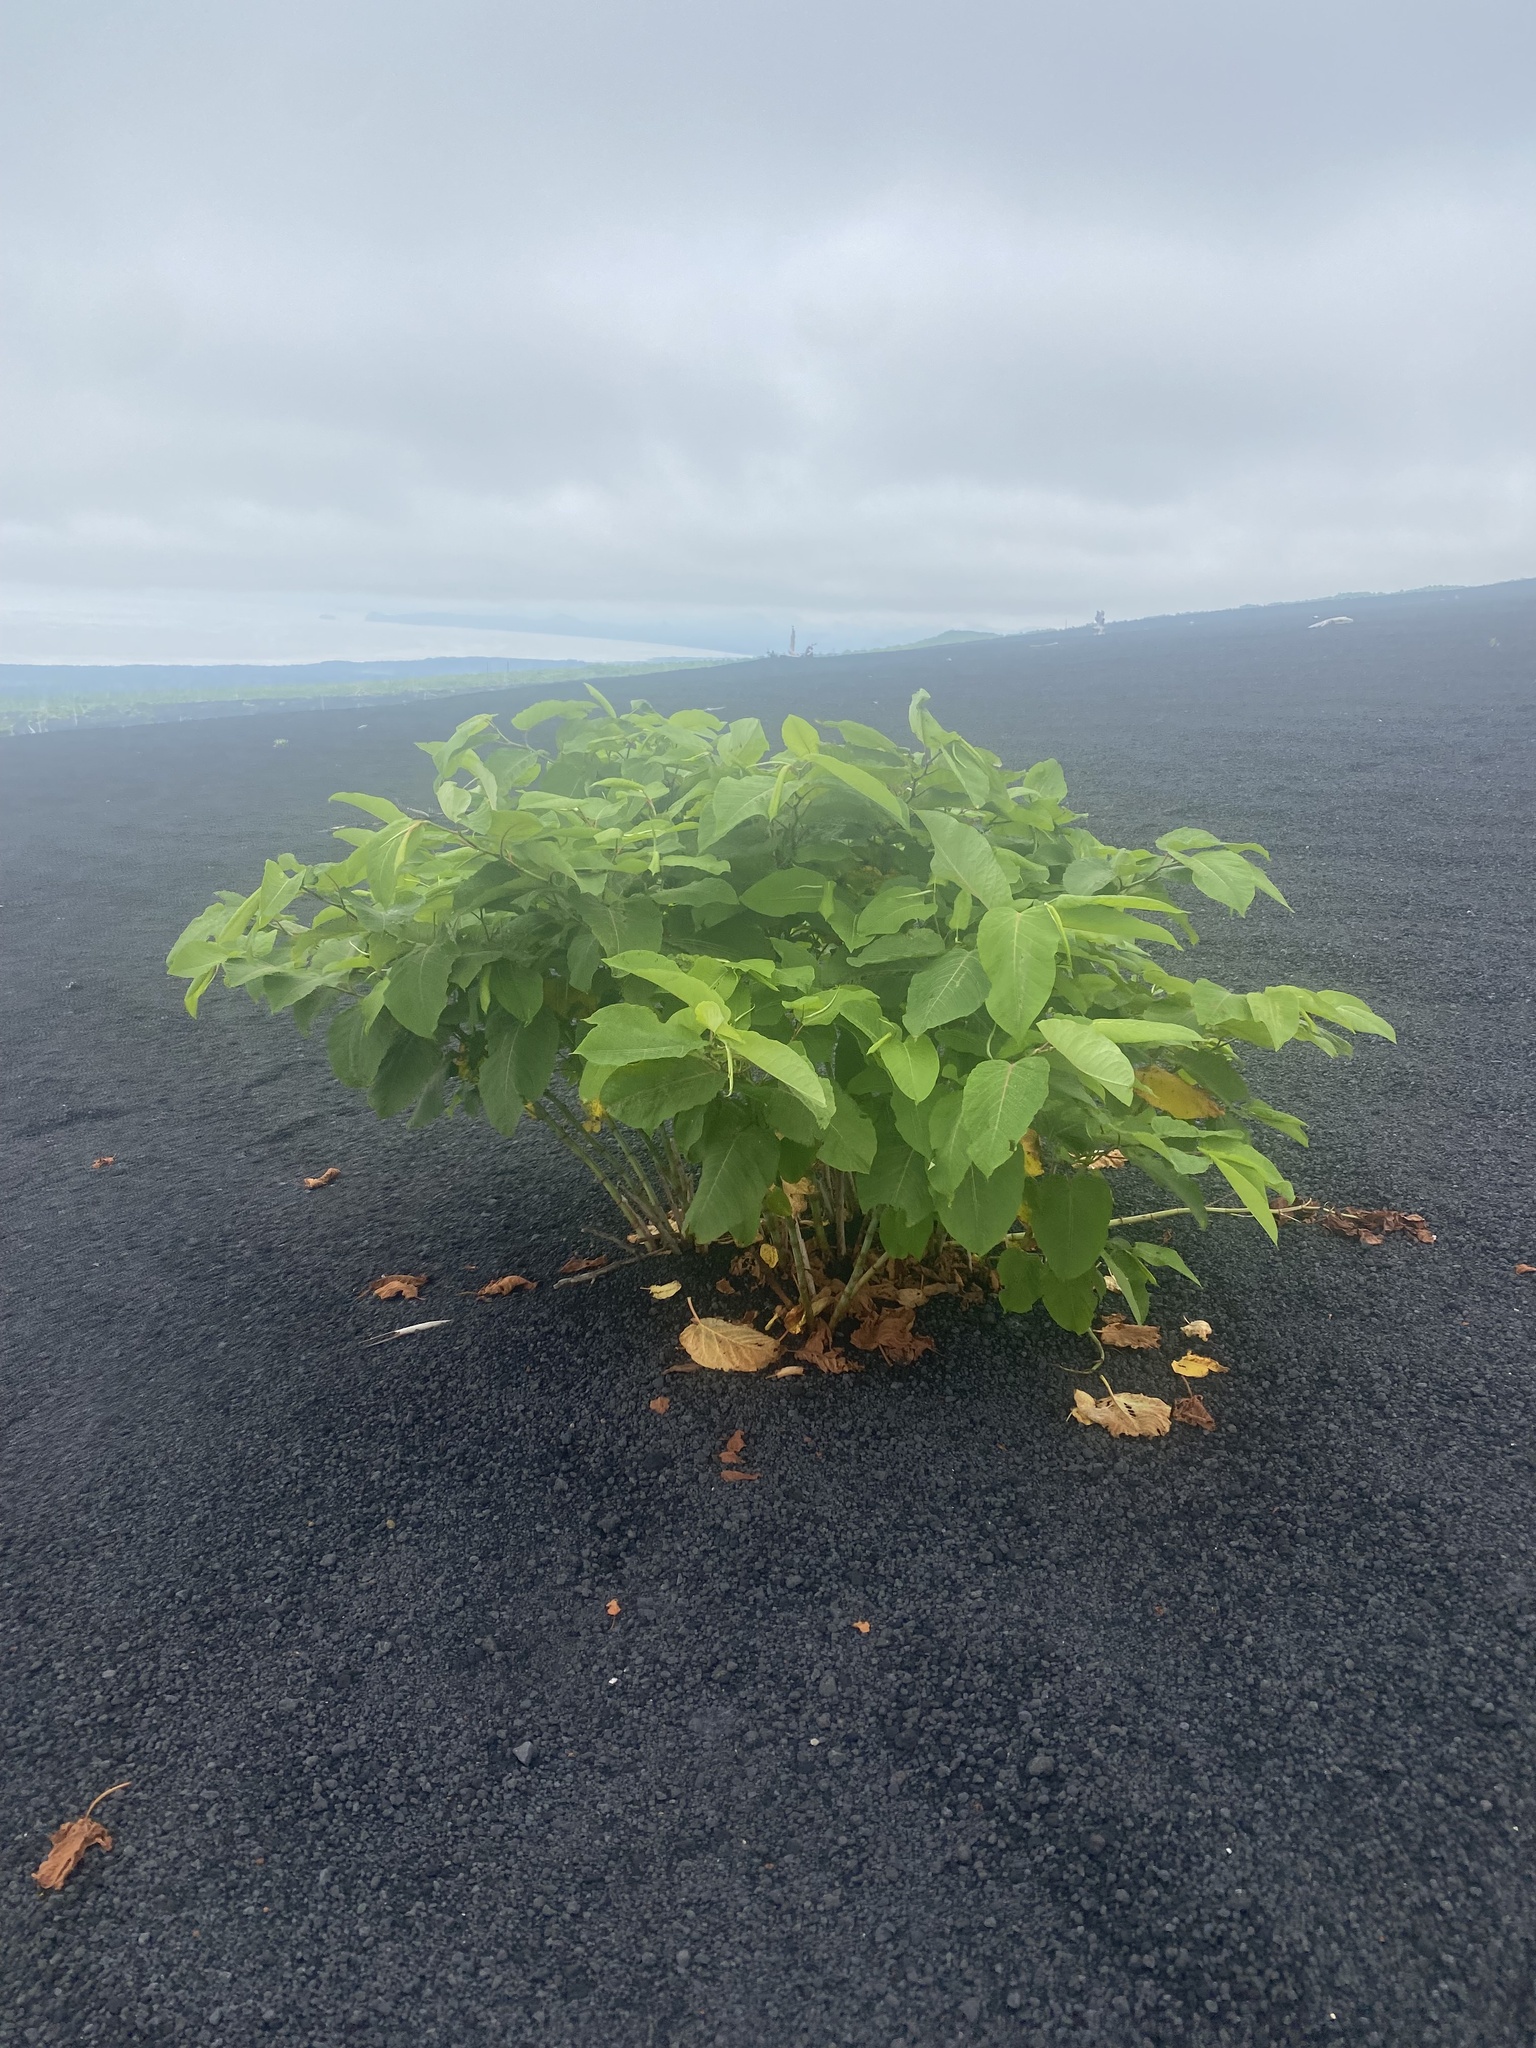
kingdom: Plantae
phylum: Tracheophyta
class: Magnoliopsida
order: Caryophyllales
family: Polygonaceae
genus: Reynoutria
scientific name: Reynoutria sachalinensis
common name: Giant knotweed
